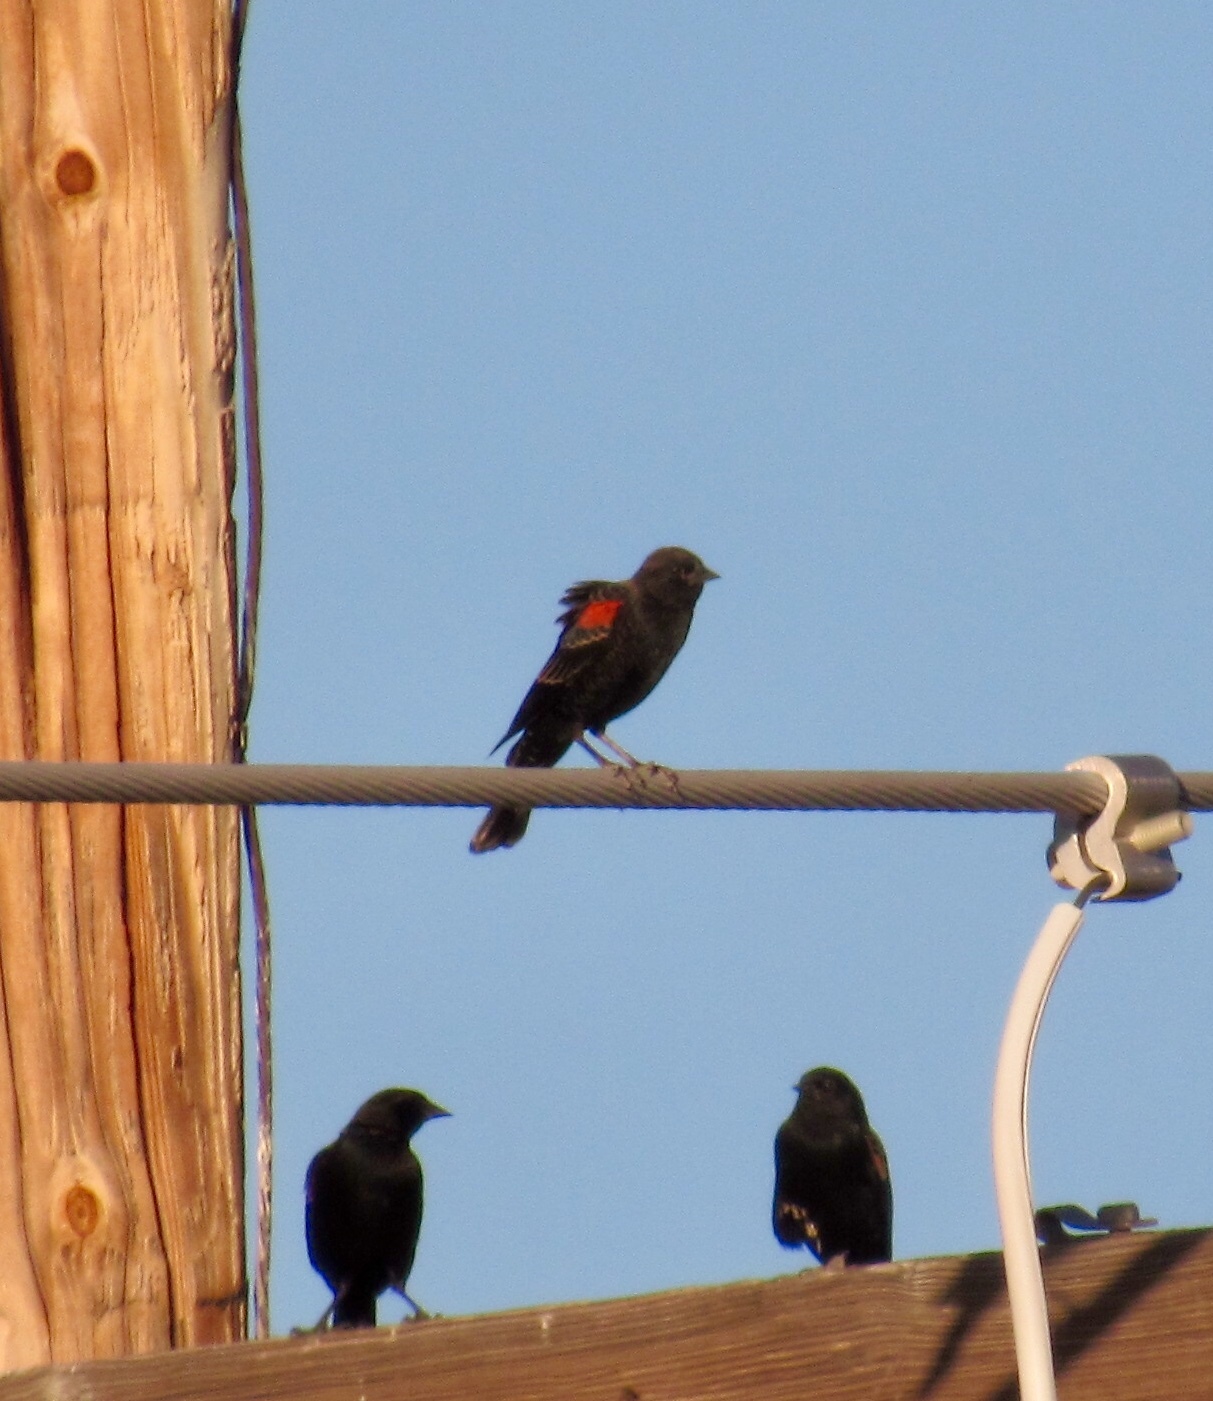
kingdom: Animalia
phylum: Chordata
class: Aves
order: Passeriformes
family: Icteridae
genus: Agelaius
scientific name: Agelaius phoeniceus
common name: Red-winged blackbird
